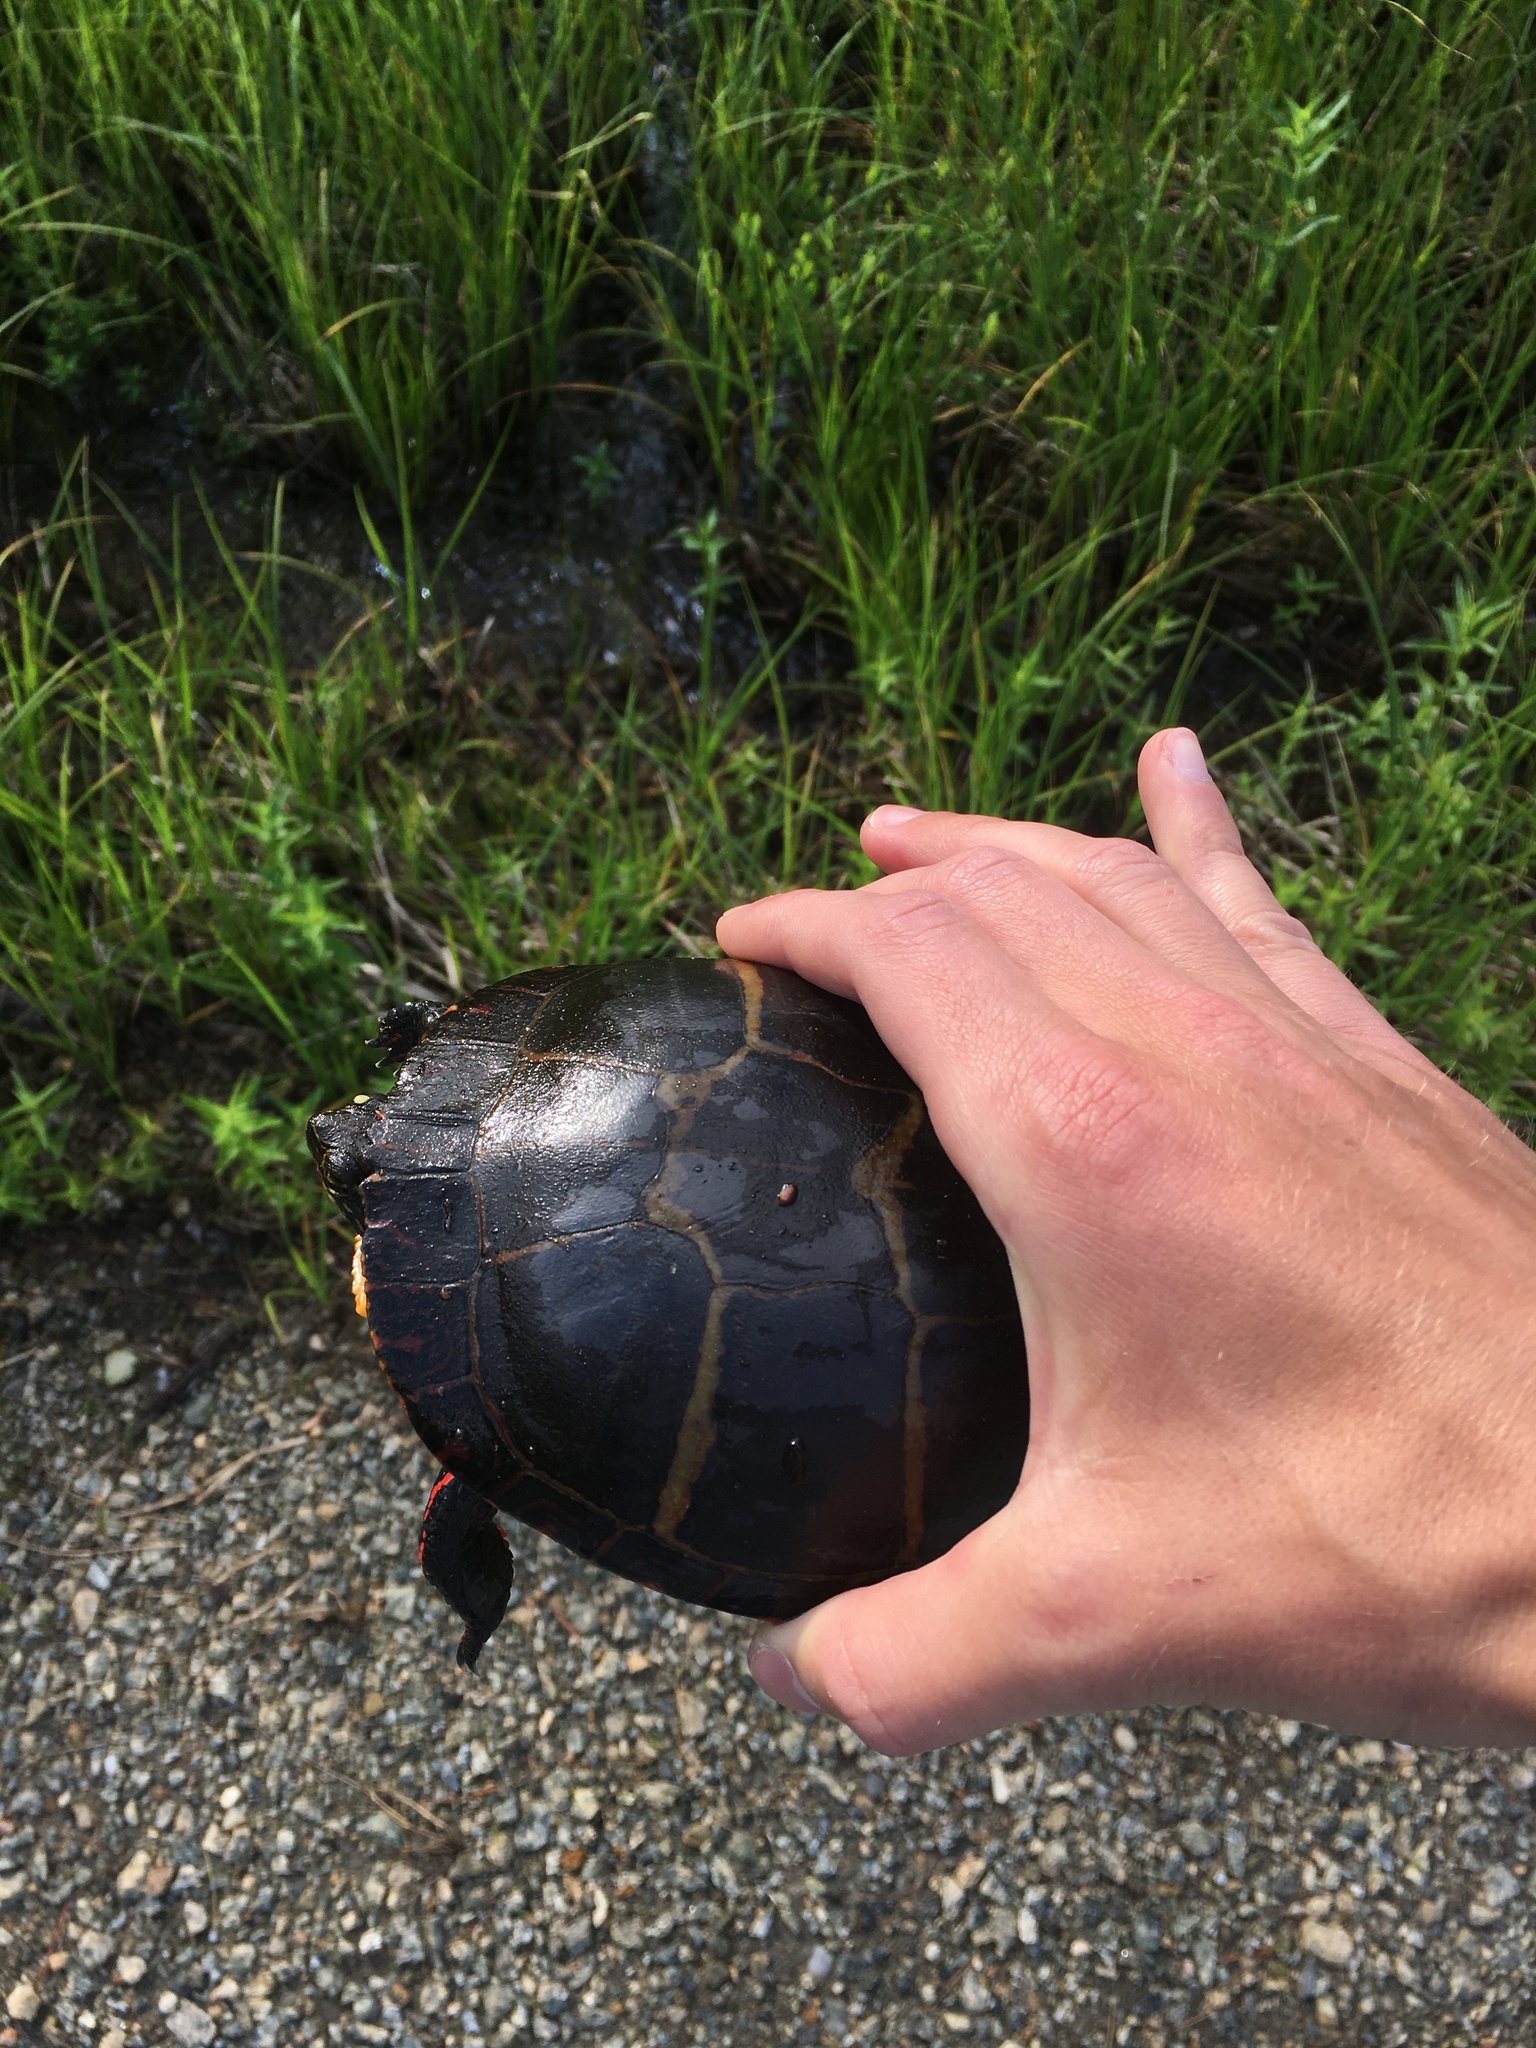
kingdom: Animalia
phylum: Chordata
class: Testudines
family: Emydidae
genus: Chrysemys
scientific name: Chrysemys picta
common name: Painted turtle
